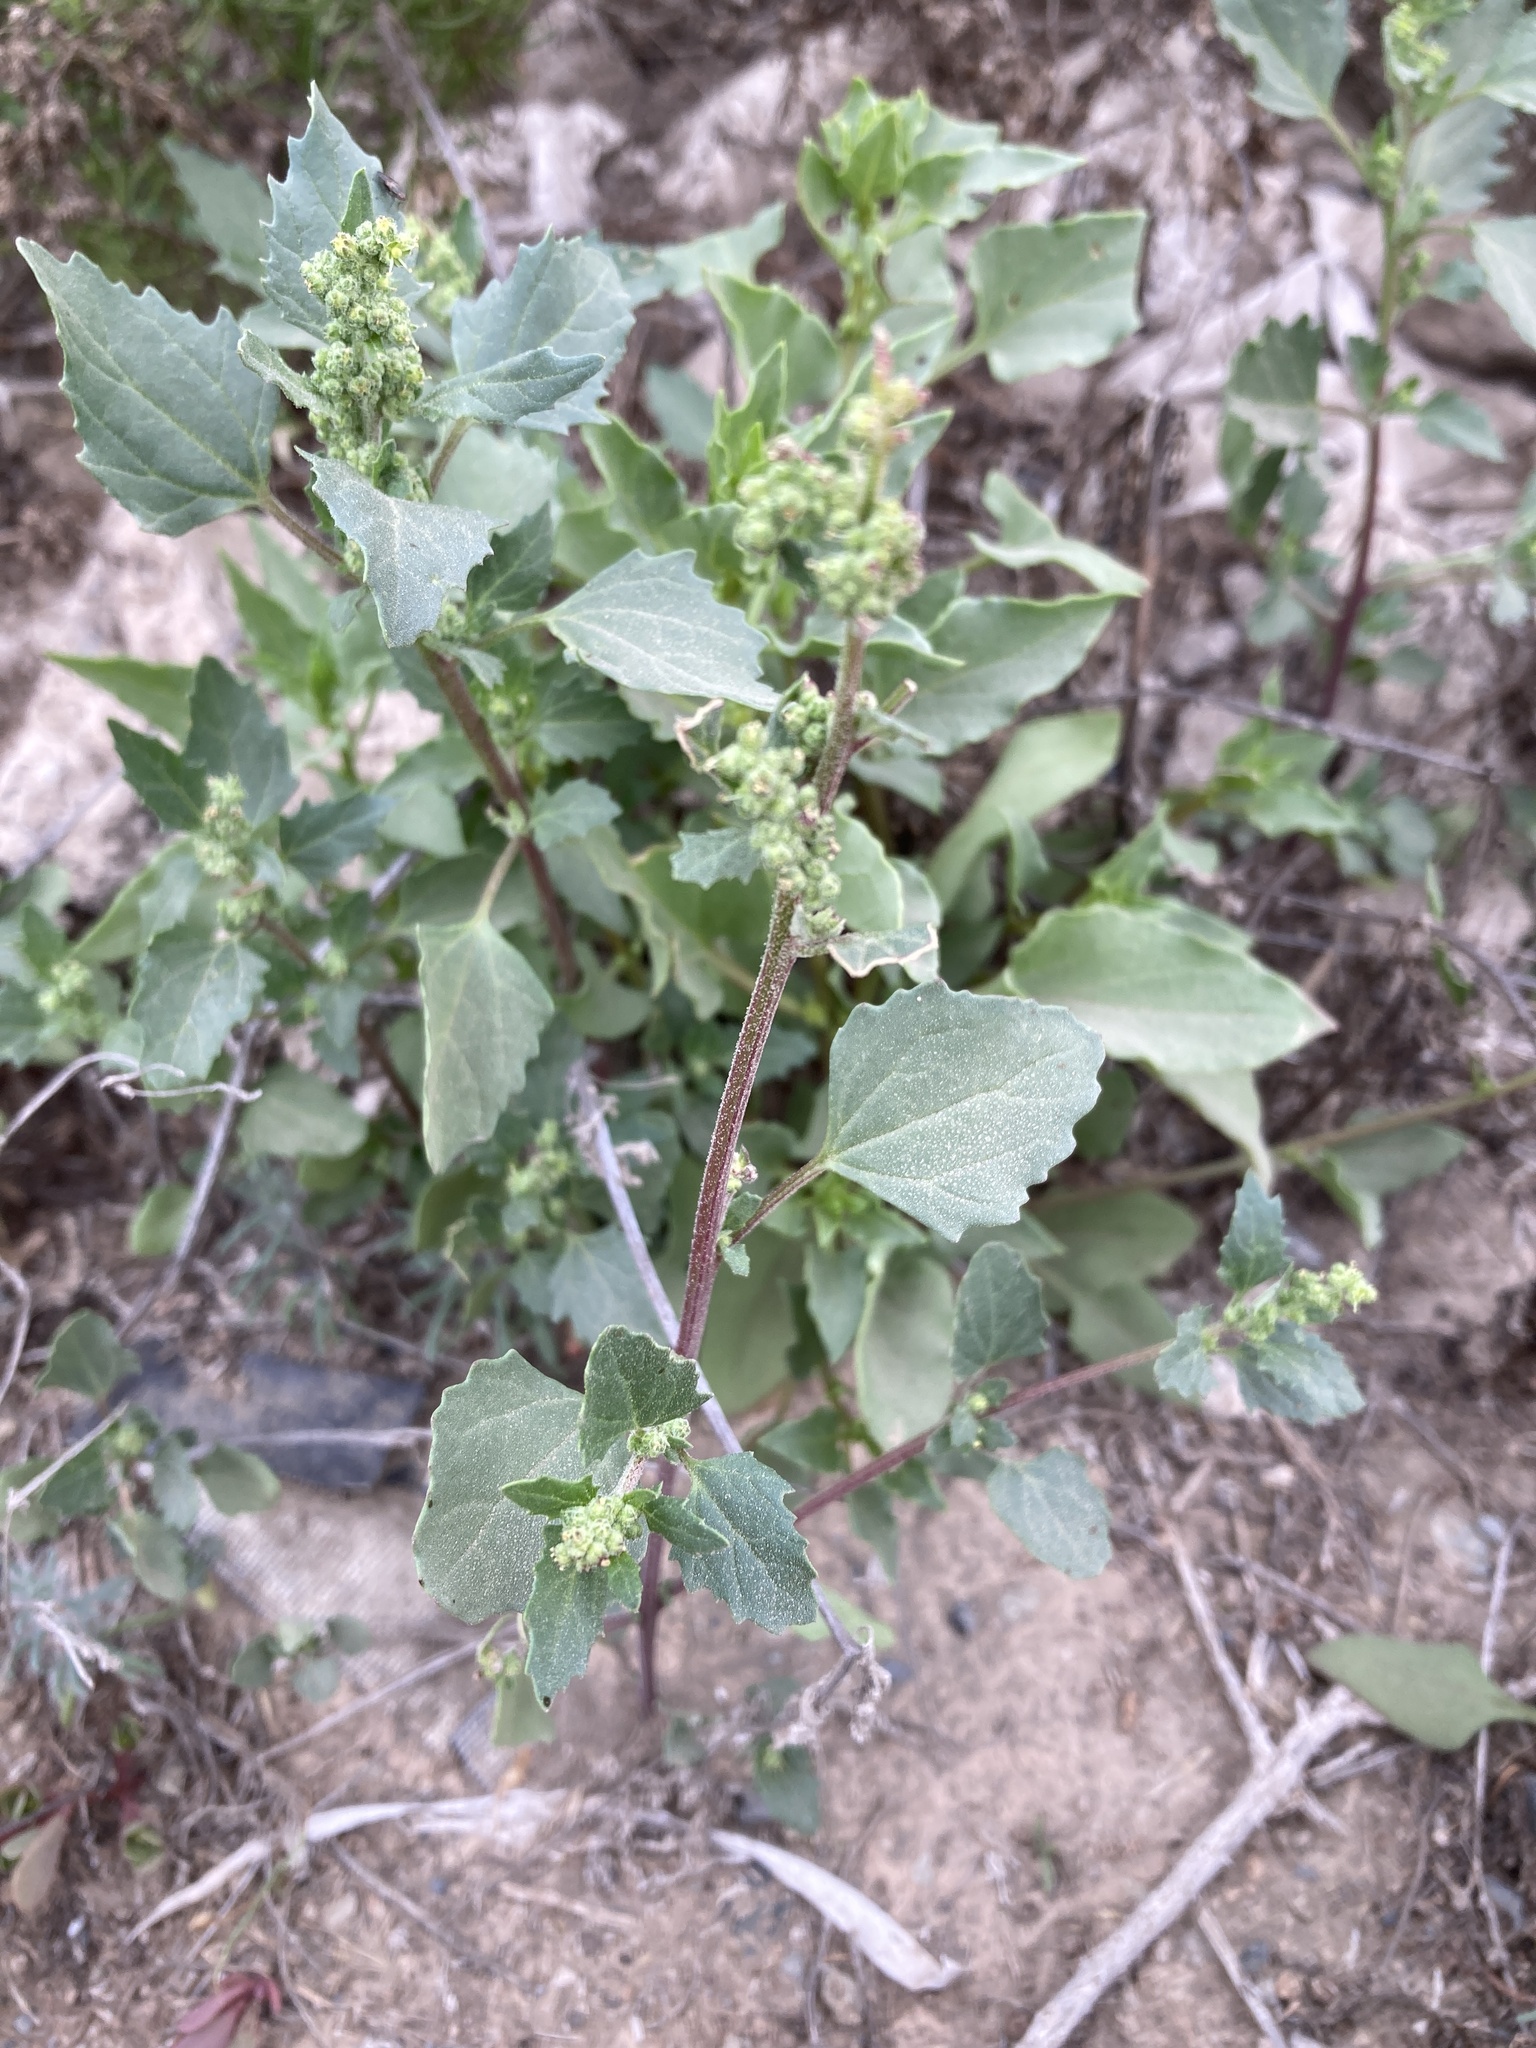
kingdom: Plantae
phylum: Tracheophyta
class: Magnoliopsida
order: Caryophyllales
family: Amaranthaceae
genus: Chenopodiastrum
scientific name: Chenopodiastrum murale
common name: Sowbane
